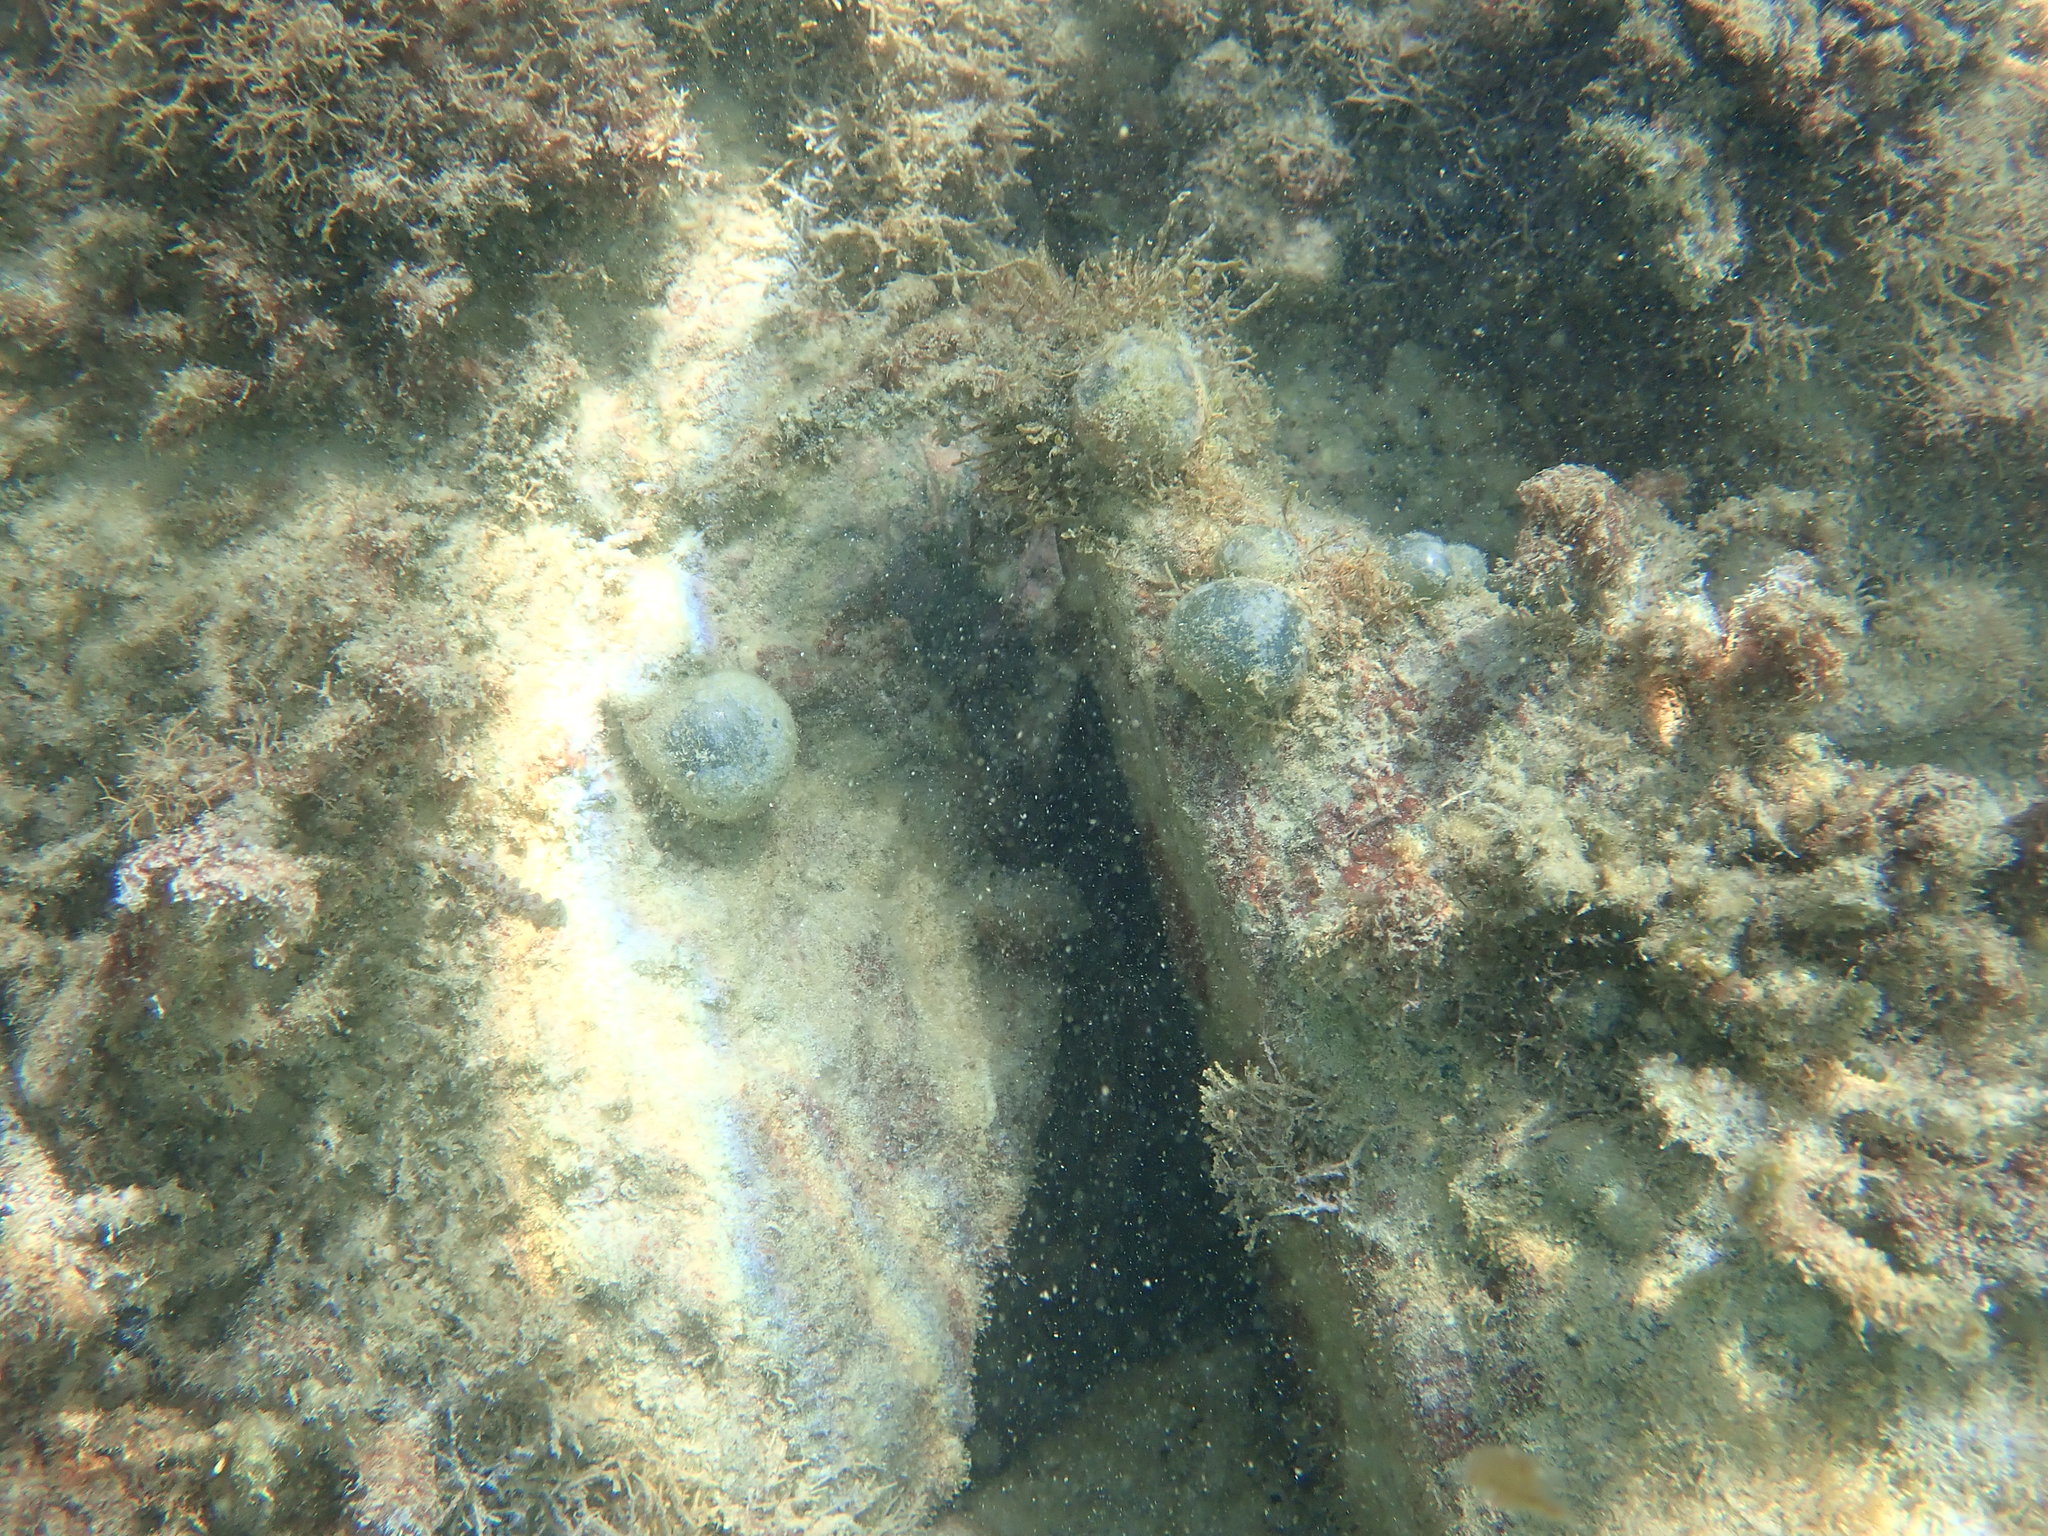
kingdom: Plantae
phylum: Chlorophyta
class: Ulvophyceae
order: Siphonocladales
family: Valoniaceae
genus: Valonia
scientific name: Valonia ventricosa
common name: Sea pearl
